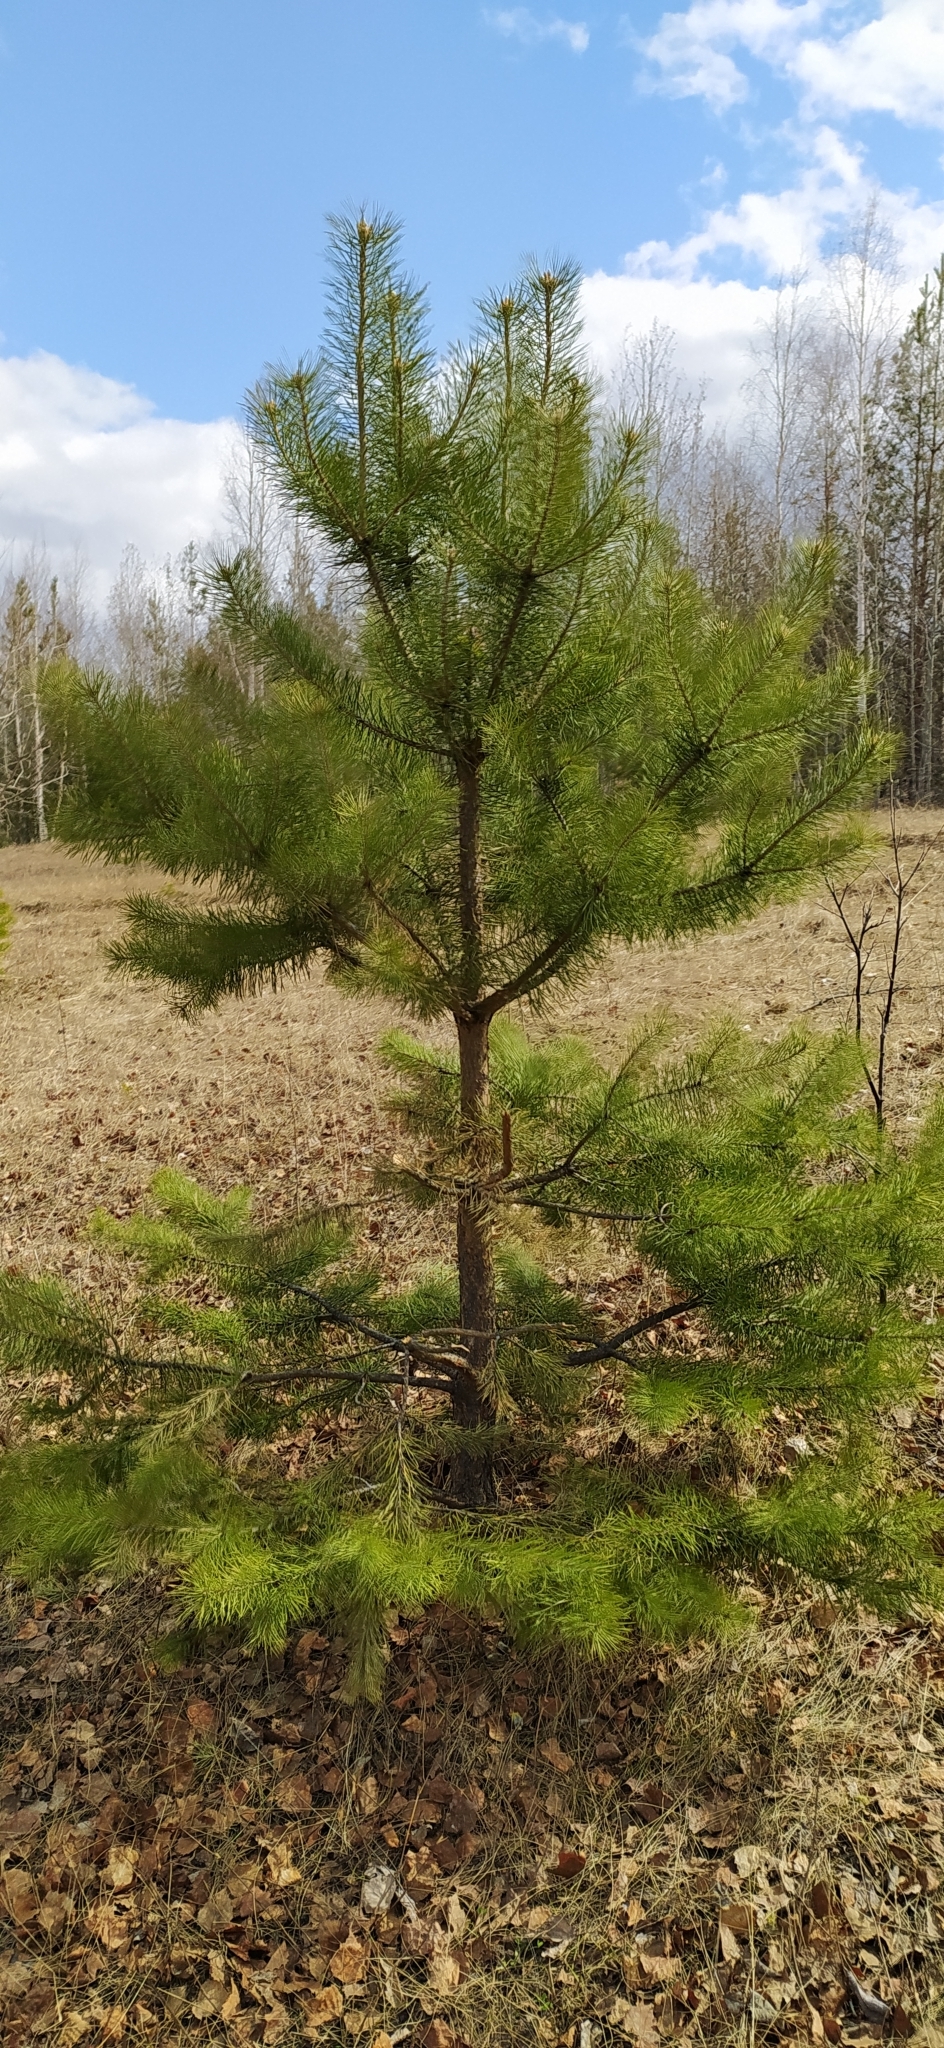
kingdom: Plantae
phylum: Tracheophyta
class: Pinopsida
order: Pinales
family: Pinaceae
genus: Pinus
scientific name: Pinus sylvestris
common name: Scots pine
